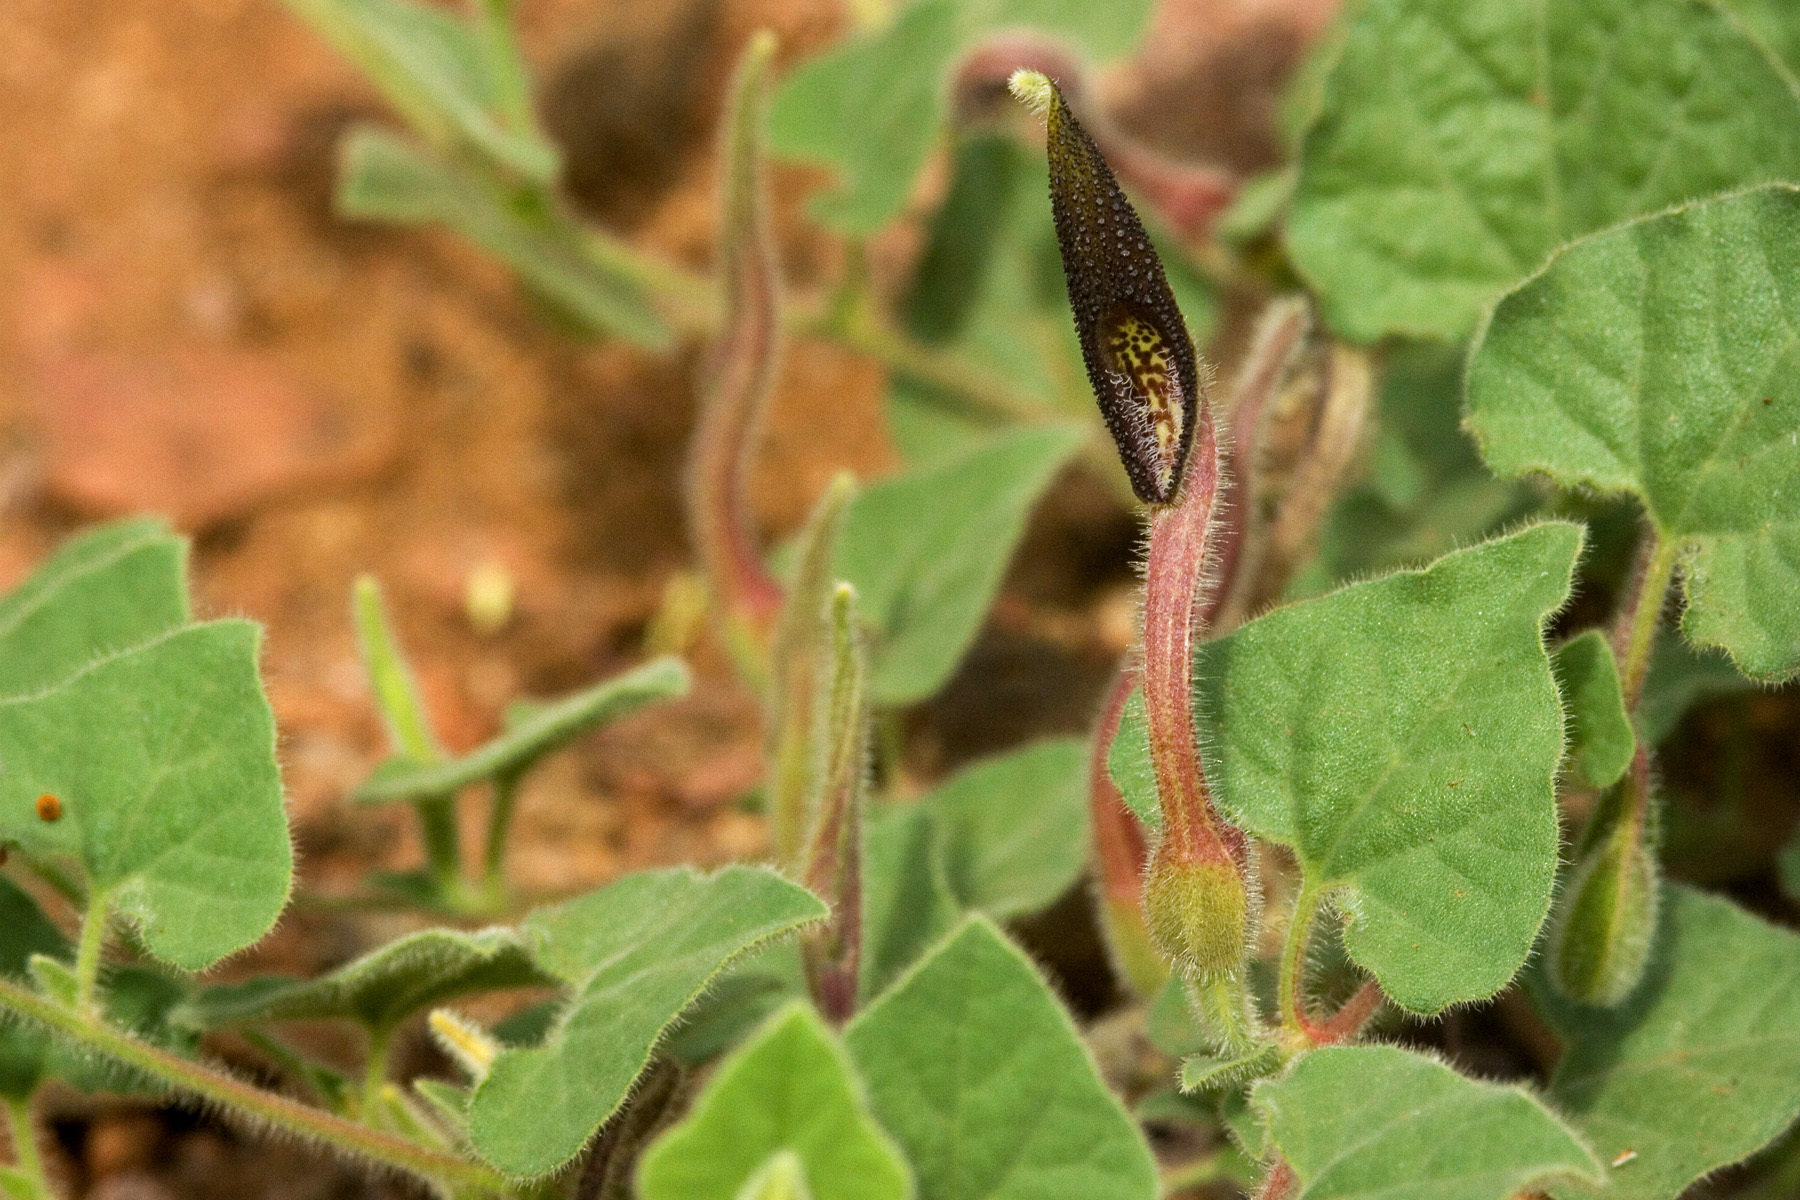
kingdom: Plantae
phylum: Tracheophyta
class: Magnoliopsida
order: Piperales
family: Aristolochiaceae
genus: Aristolochia
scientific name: Aristolochia wrightii
